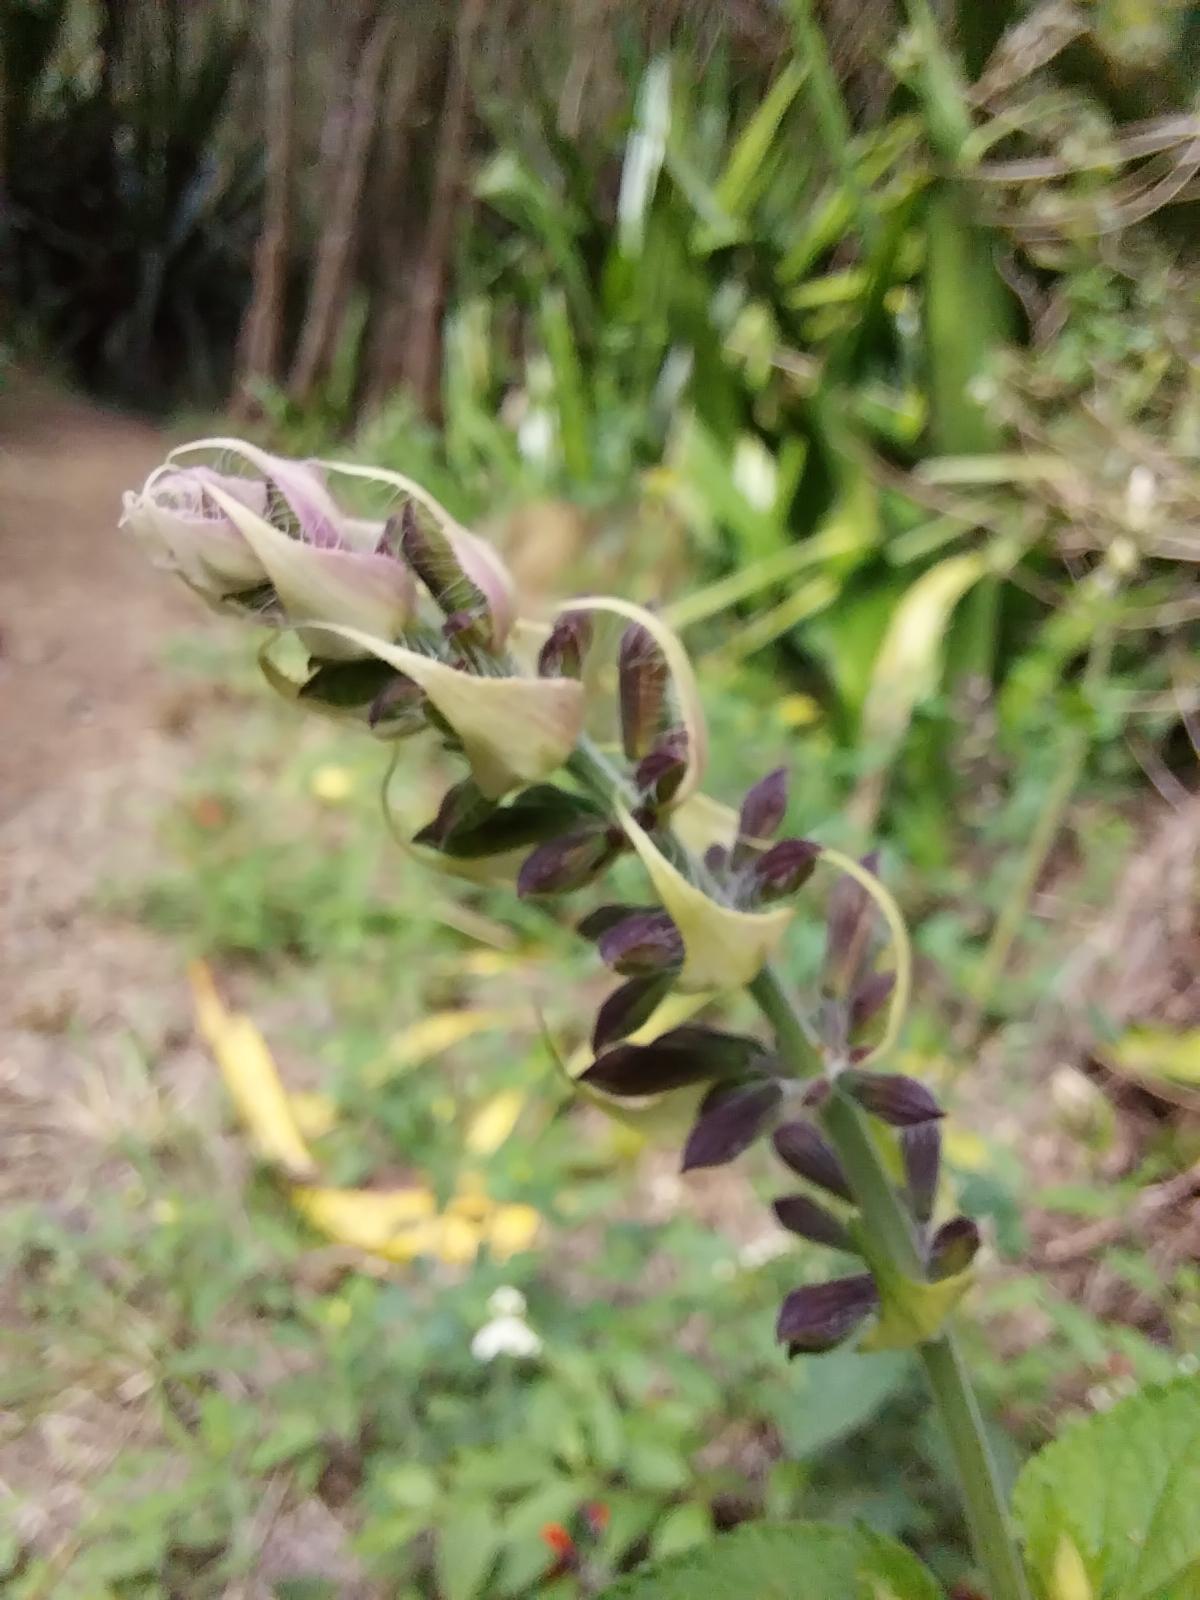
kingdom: Plantae
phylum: Tracheophyta
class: Magnoliopsida
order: Lamiales
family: Lamiaceae
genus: Salvia
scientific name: Salvia coccinea
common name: Blood sage
